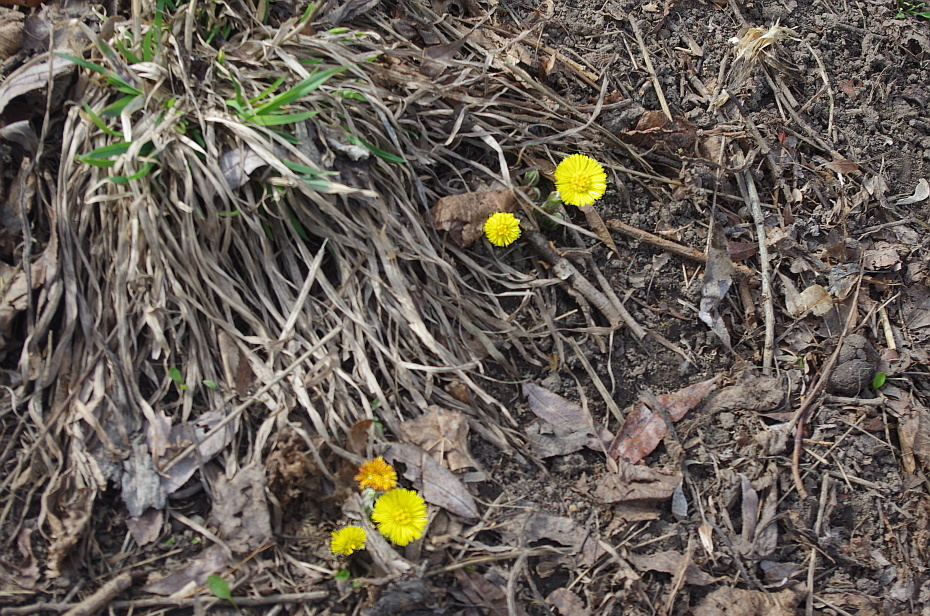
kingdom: Plantae
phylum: Tracheophyta
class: Magnoliopsida
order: Asterales
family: Asteraceae
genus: Tussilago
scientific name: Tussilago farfara
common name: Coltsfoot
